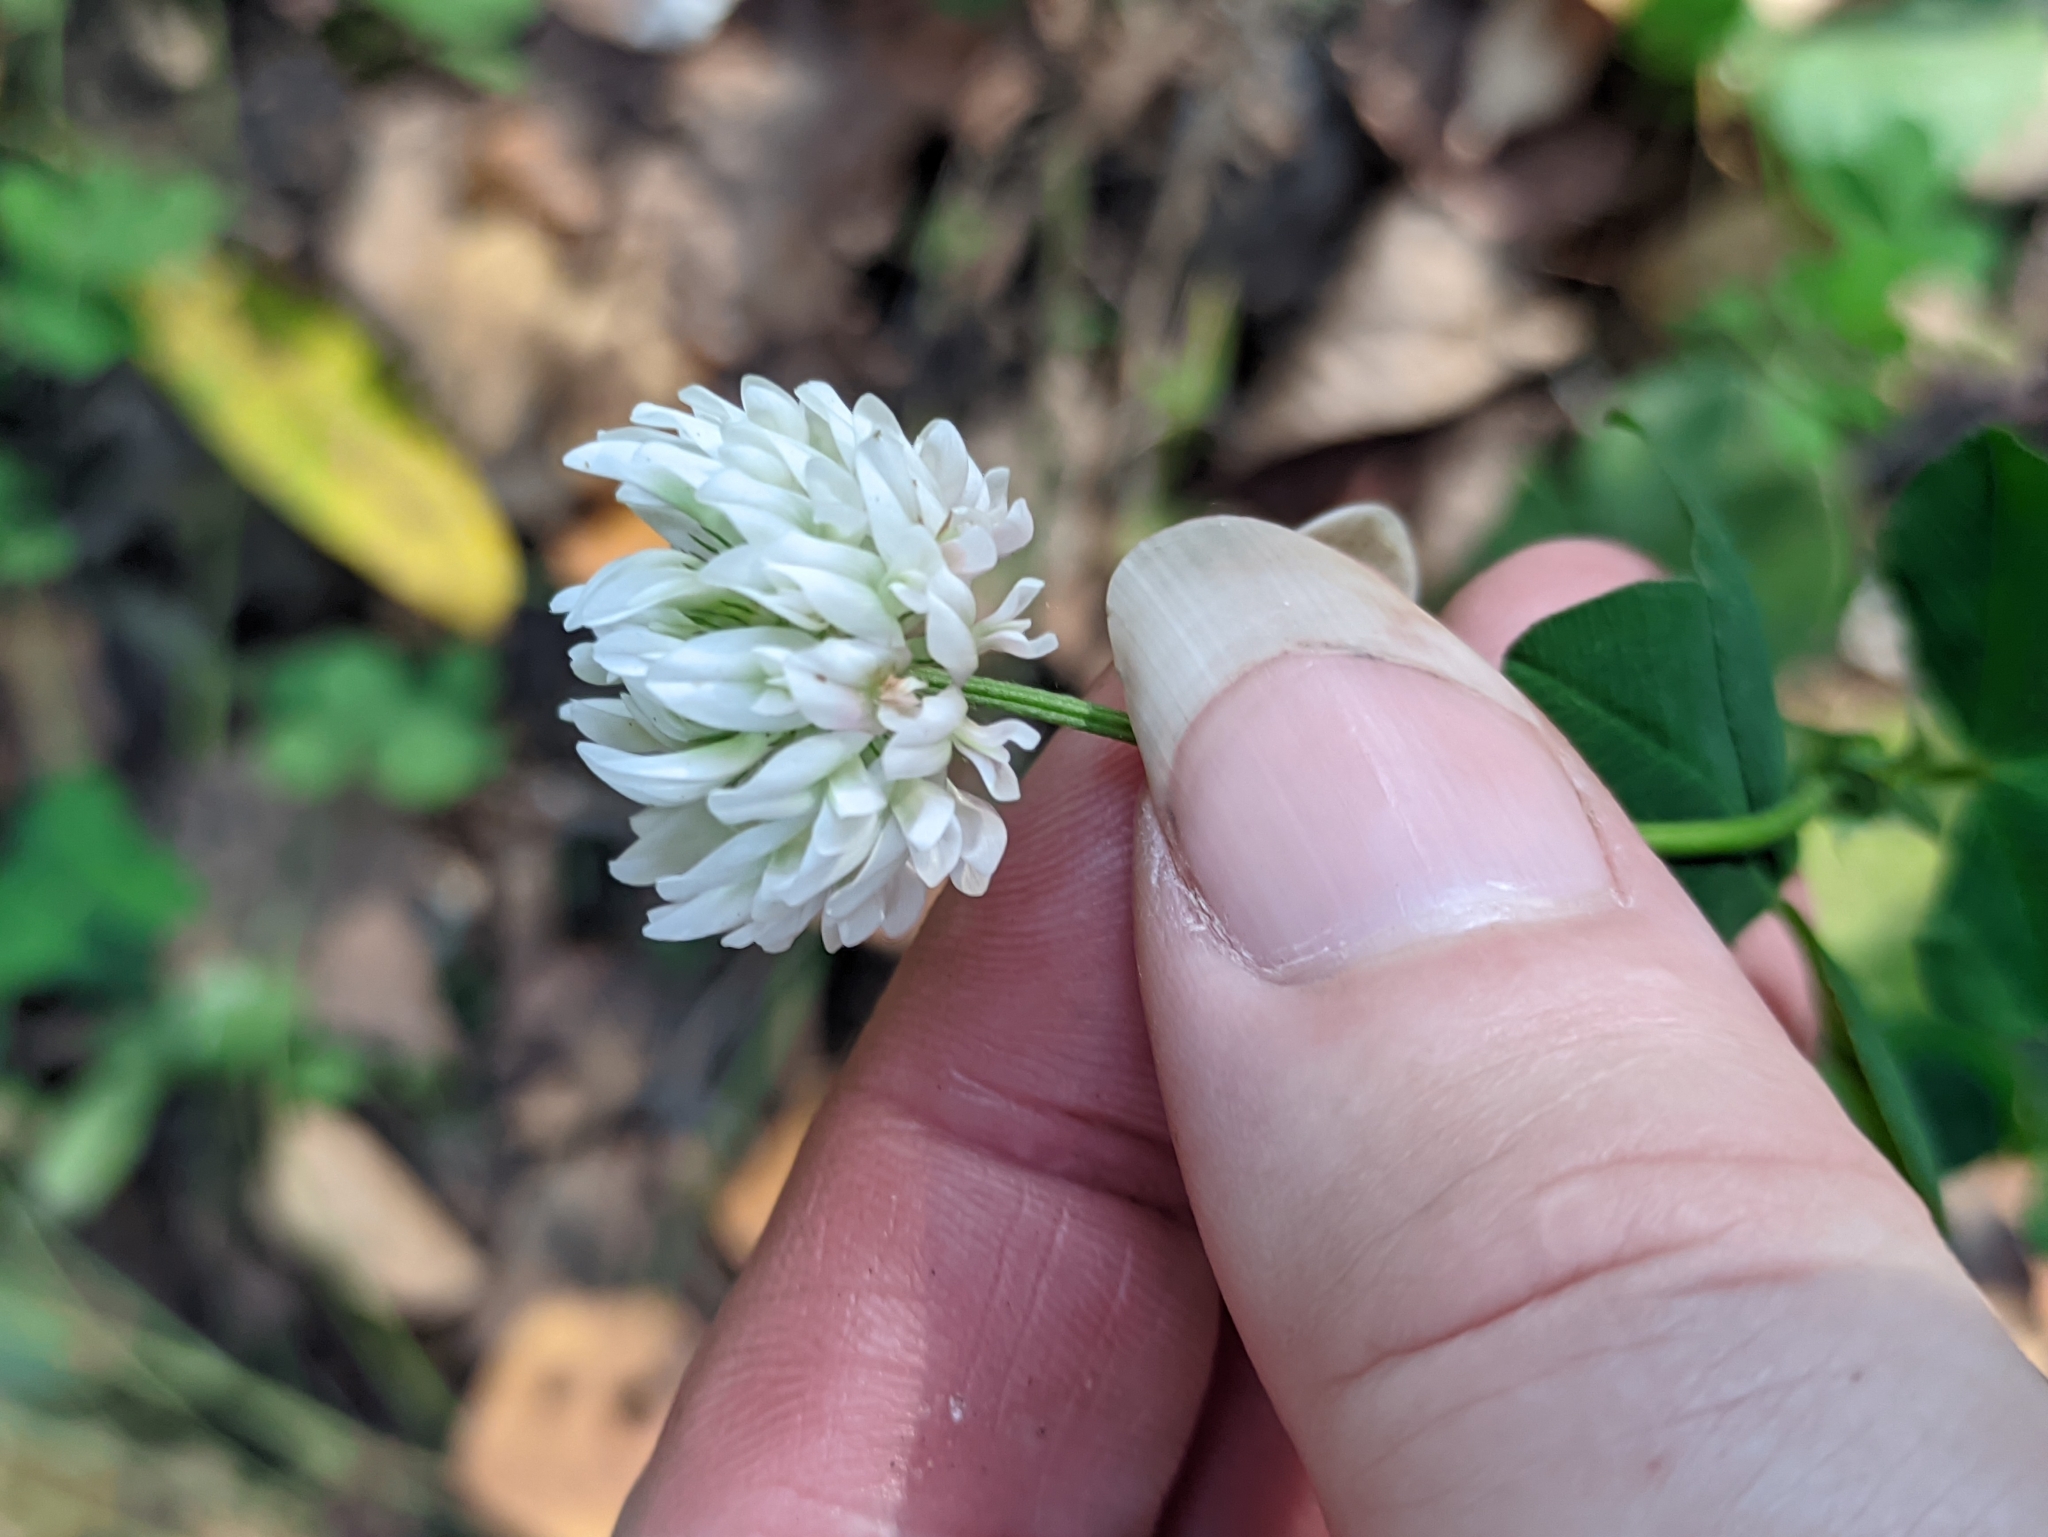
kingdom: Plantae
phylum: Tracheophyta
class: Magnoliopsida
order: Fabales
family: Fabaceae
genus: Trifolium
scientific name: Trifolium hybridum
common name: Alsike clover
